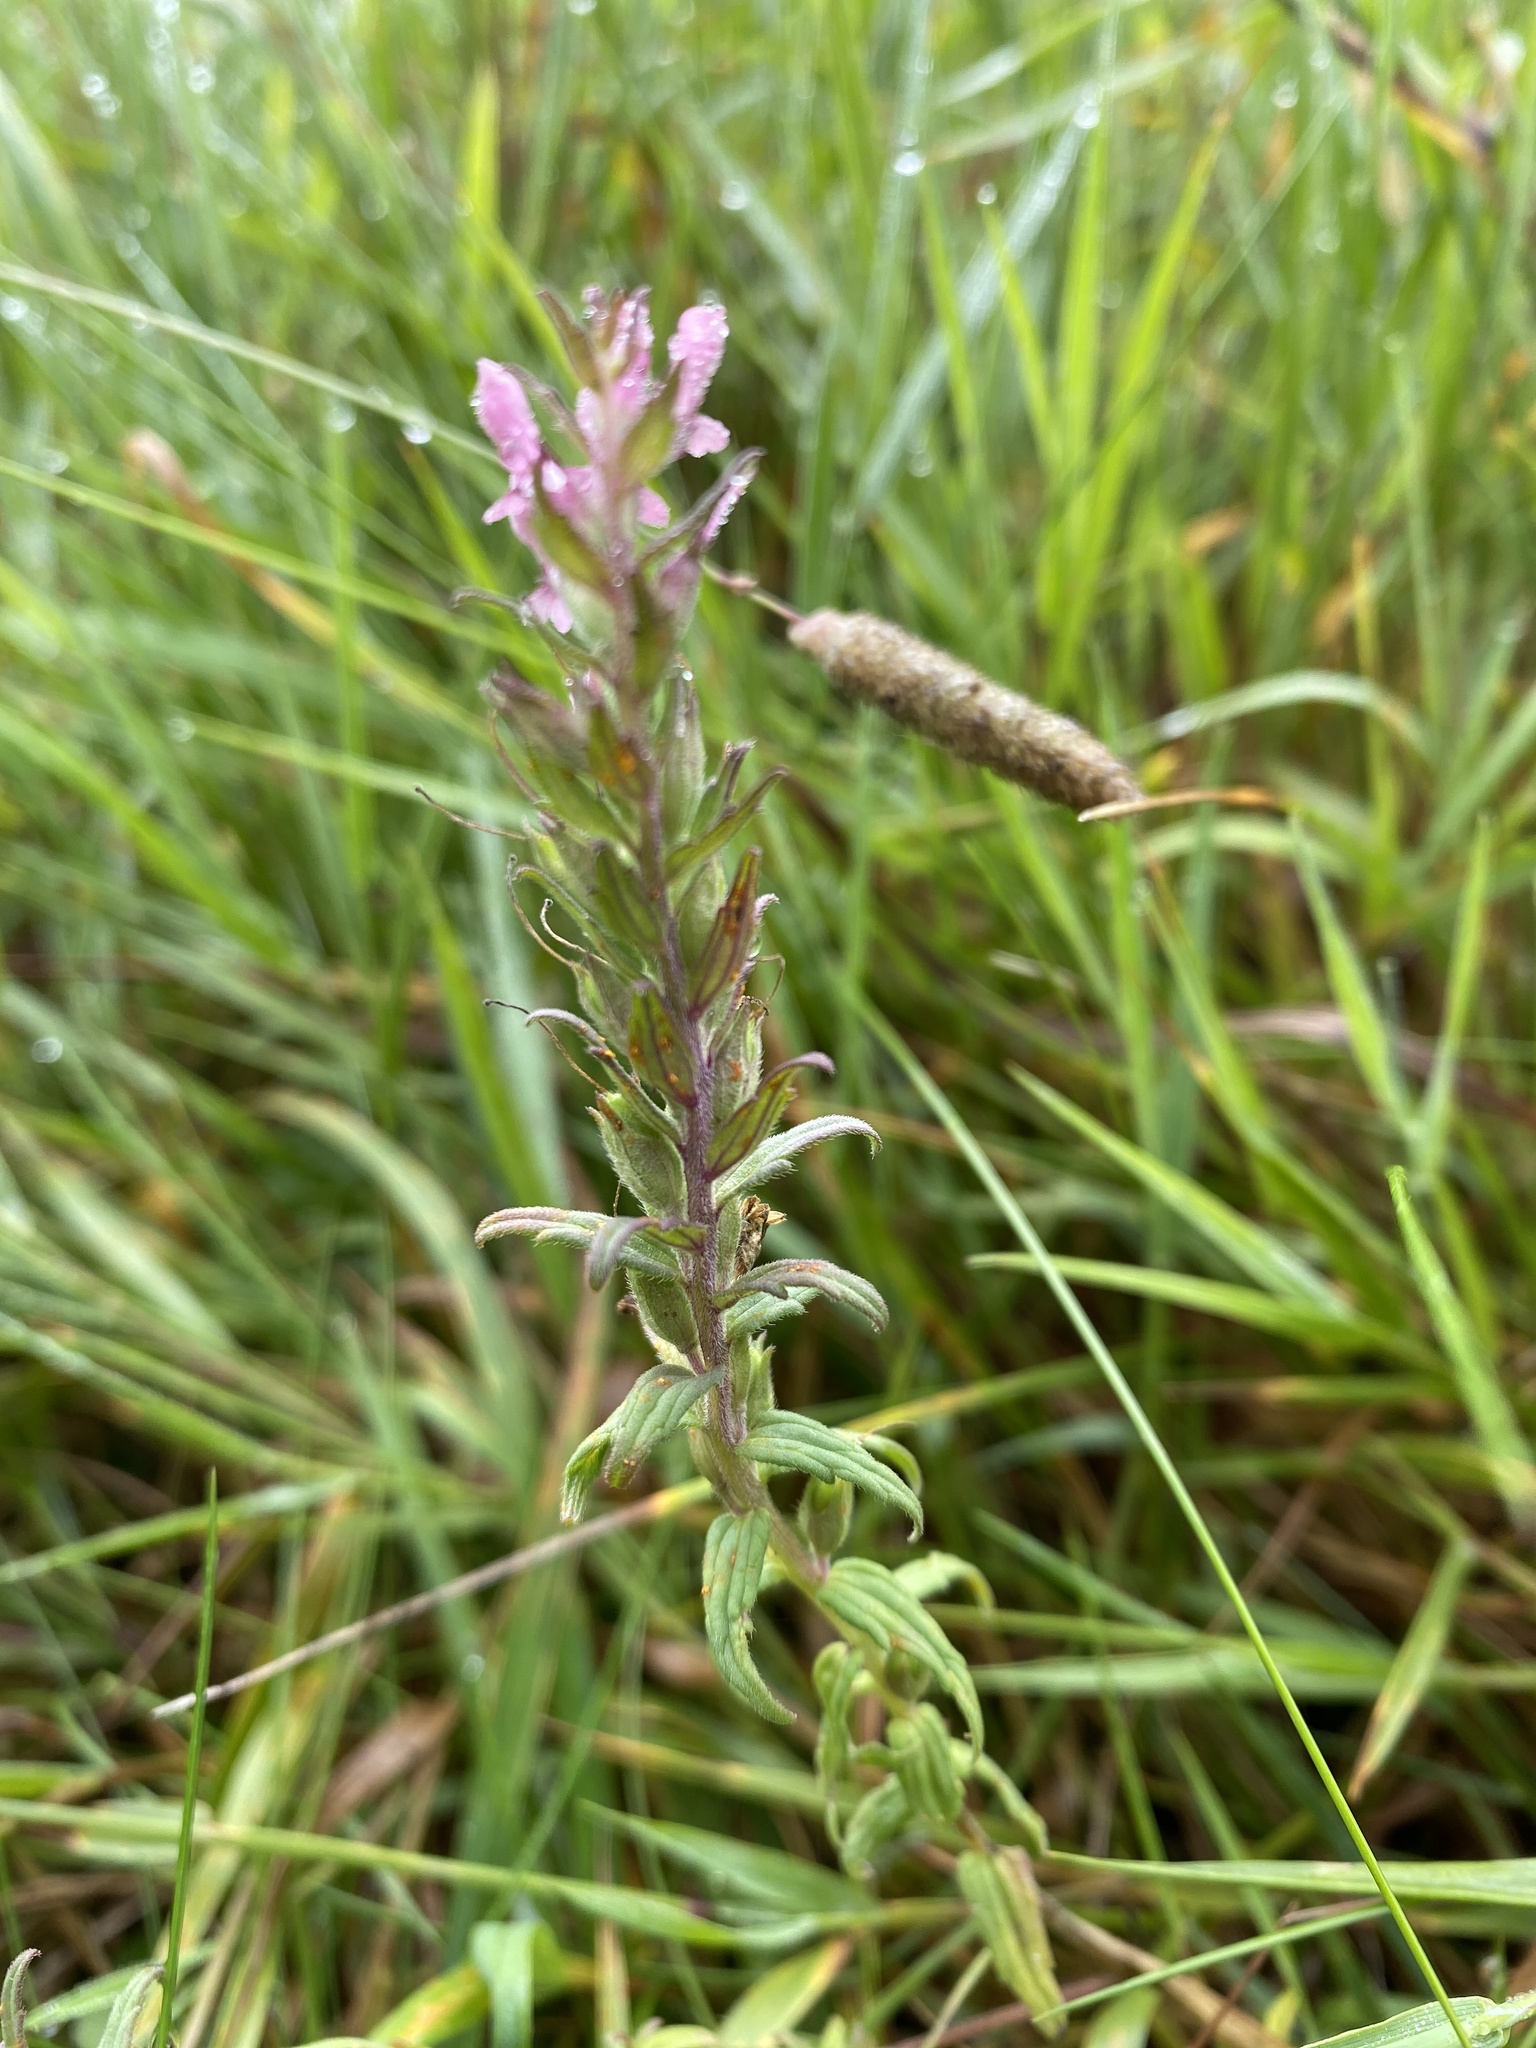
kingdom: Plantae
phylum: Tracheophyta
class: Magnoliopsida
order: Lamiales
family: Orobanchaceae
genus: Odontites
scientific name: Odontites vulgaris
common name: Broomrape
